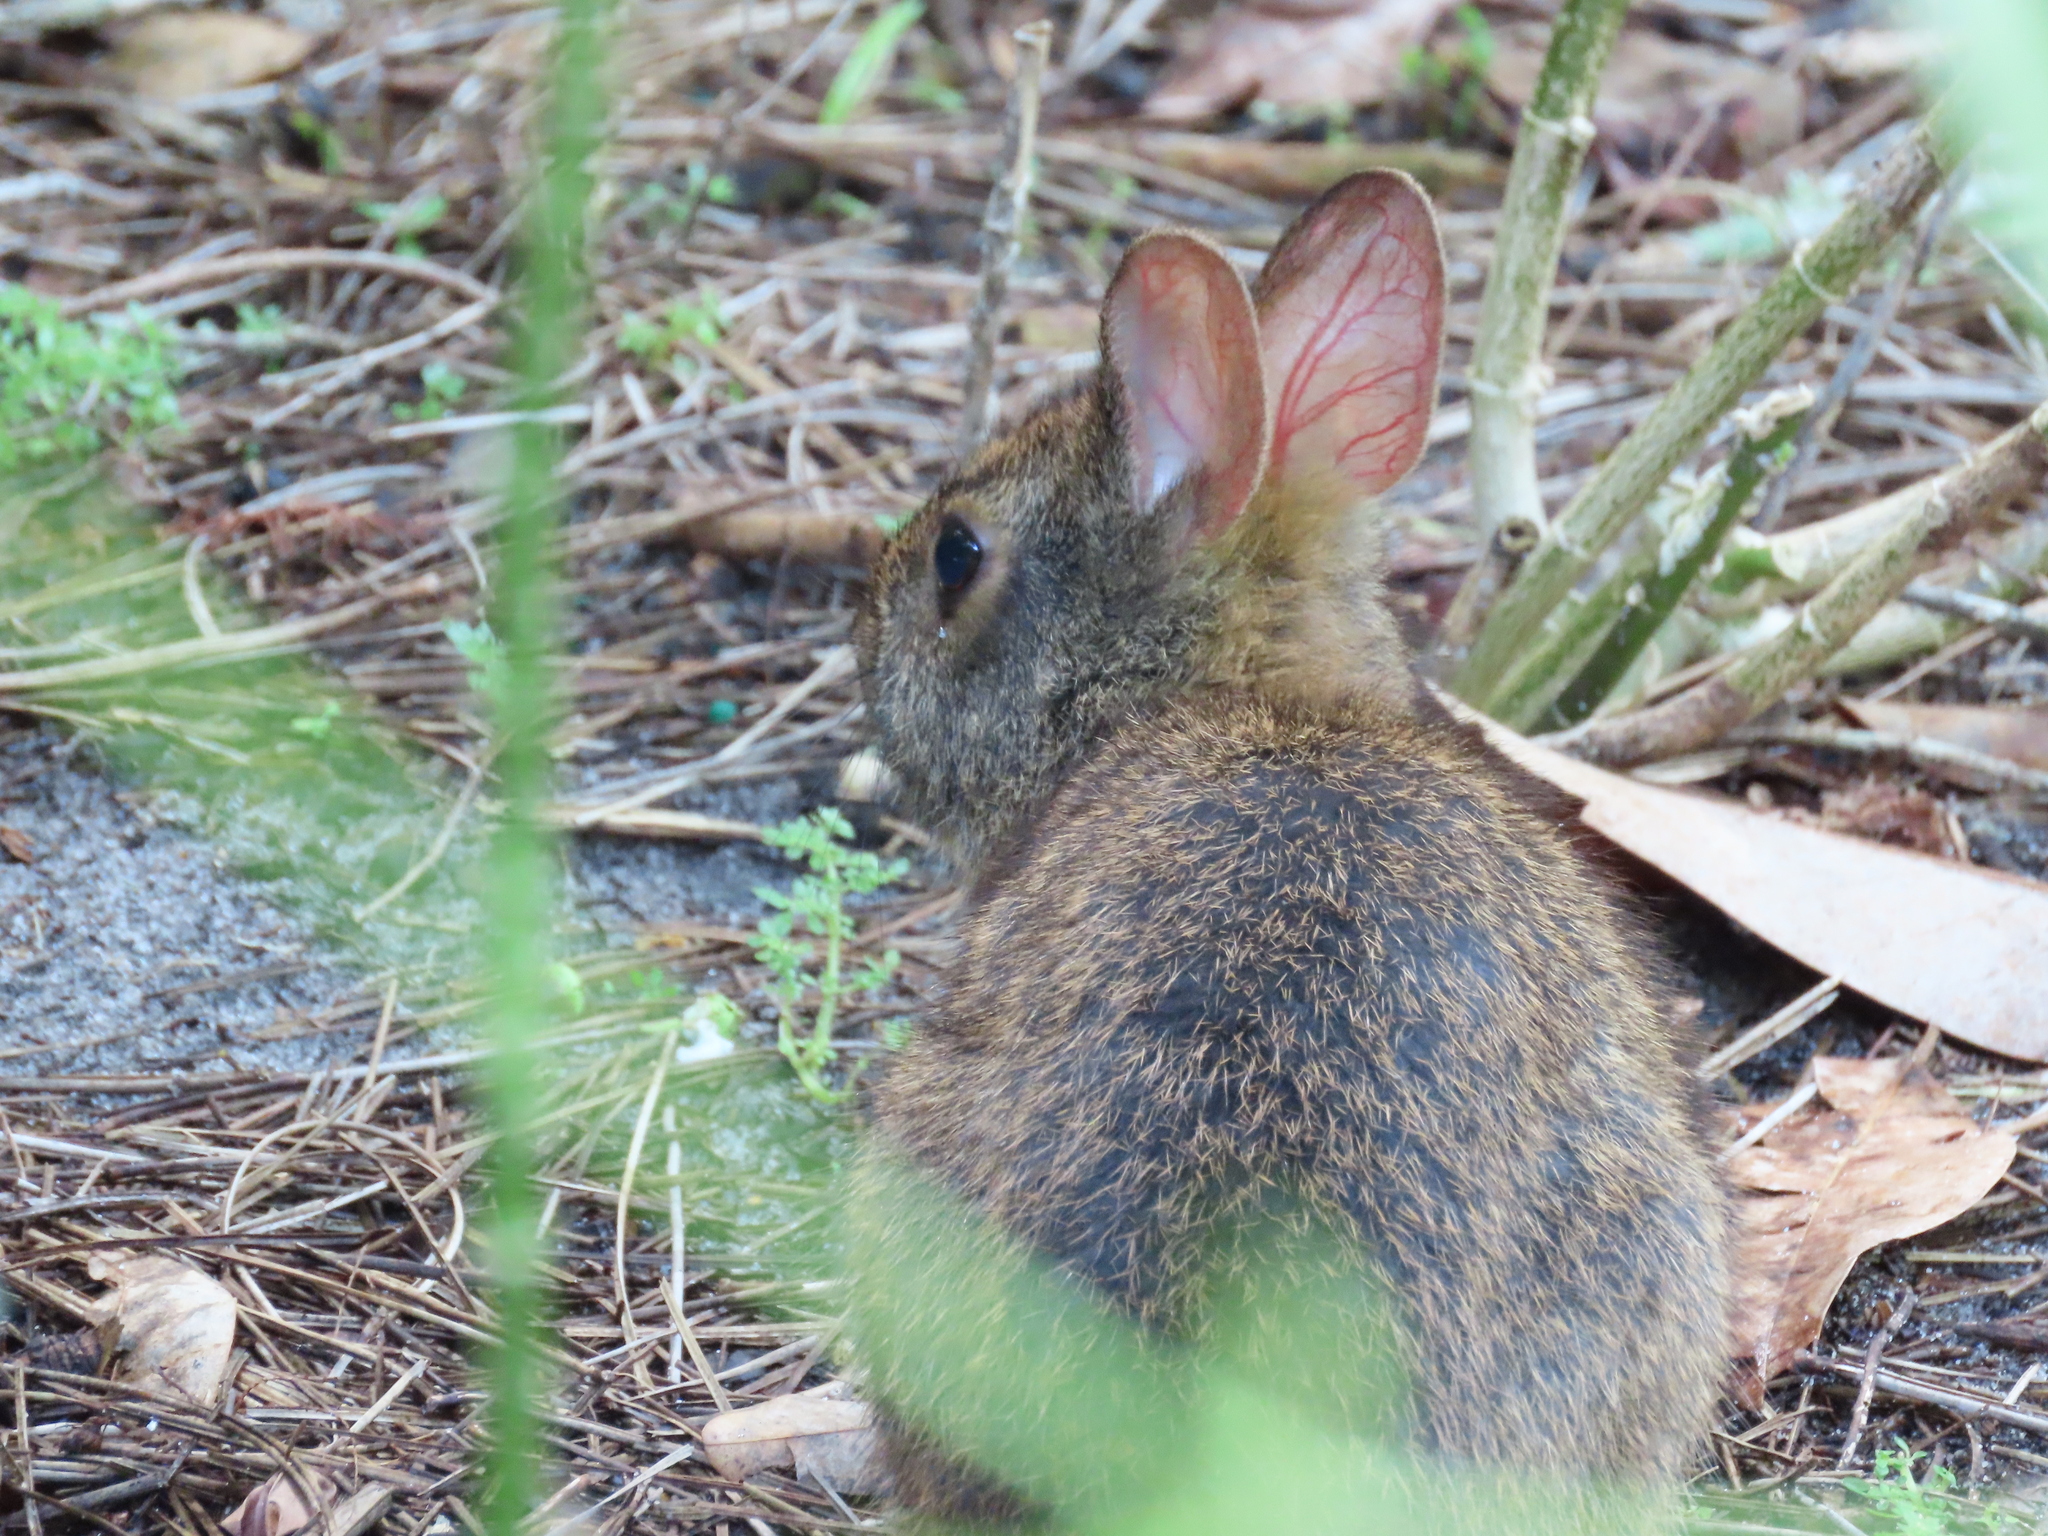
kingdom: Animalia
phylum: Chordata
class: Mammalia
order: Lagomorpha
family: Leporidae
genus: Sylvilagus
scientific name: Sylvilagus palustris
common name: Marsh rabbit
